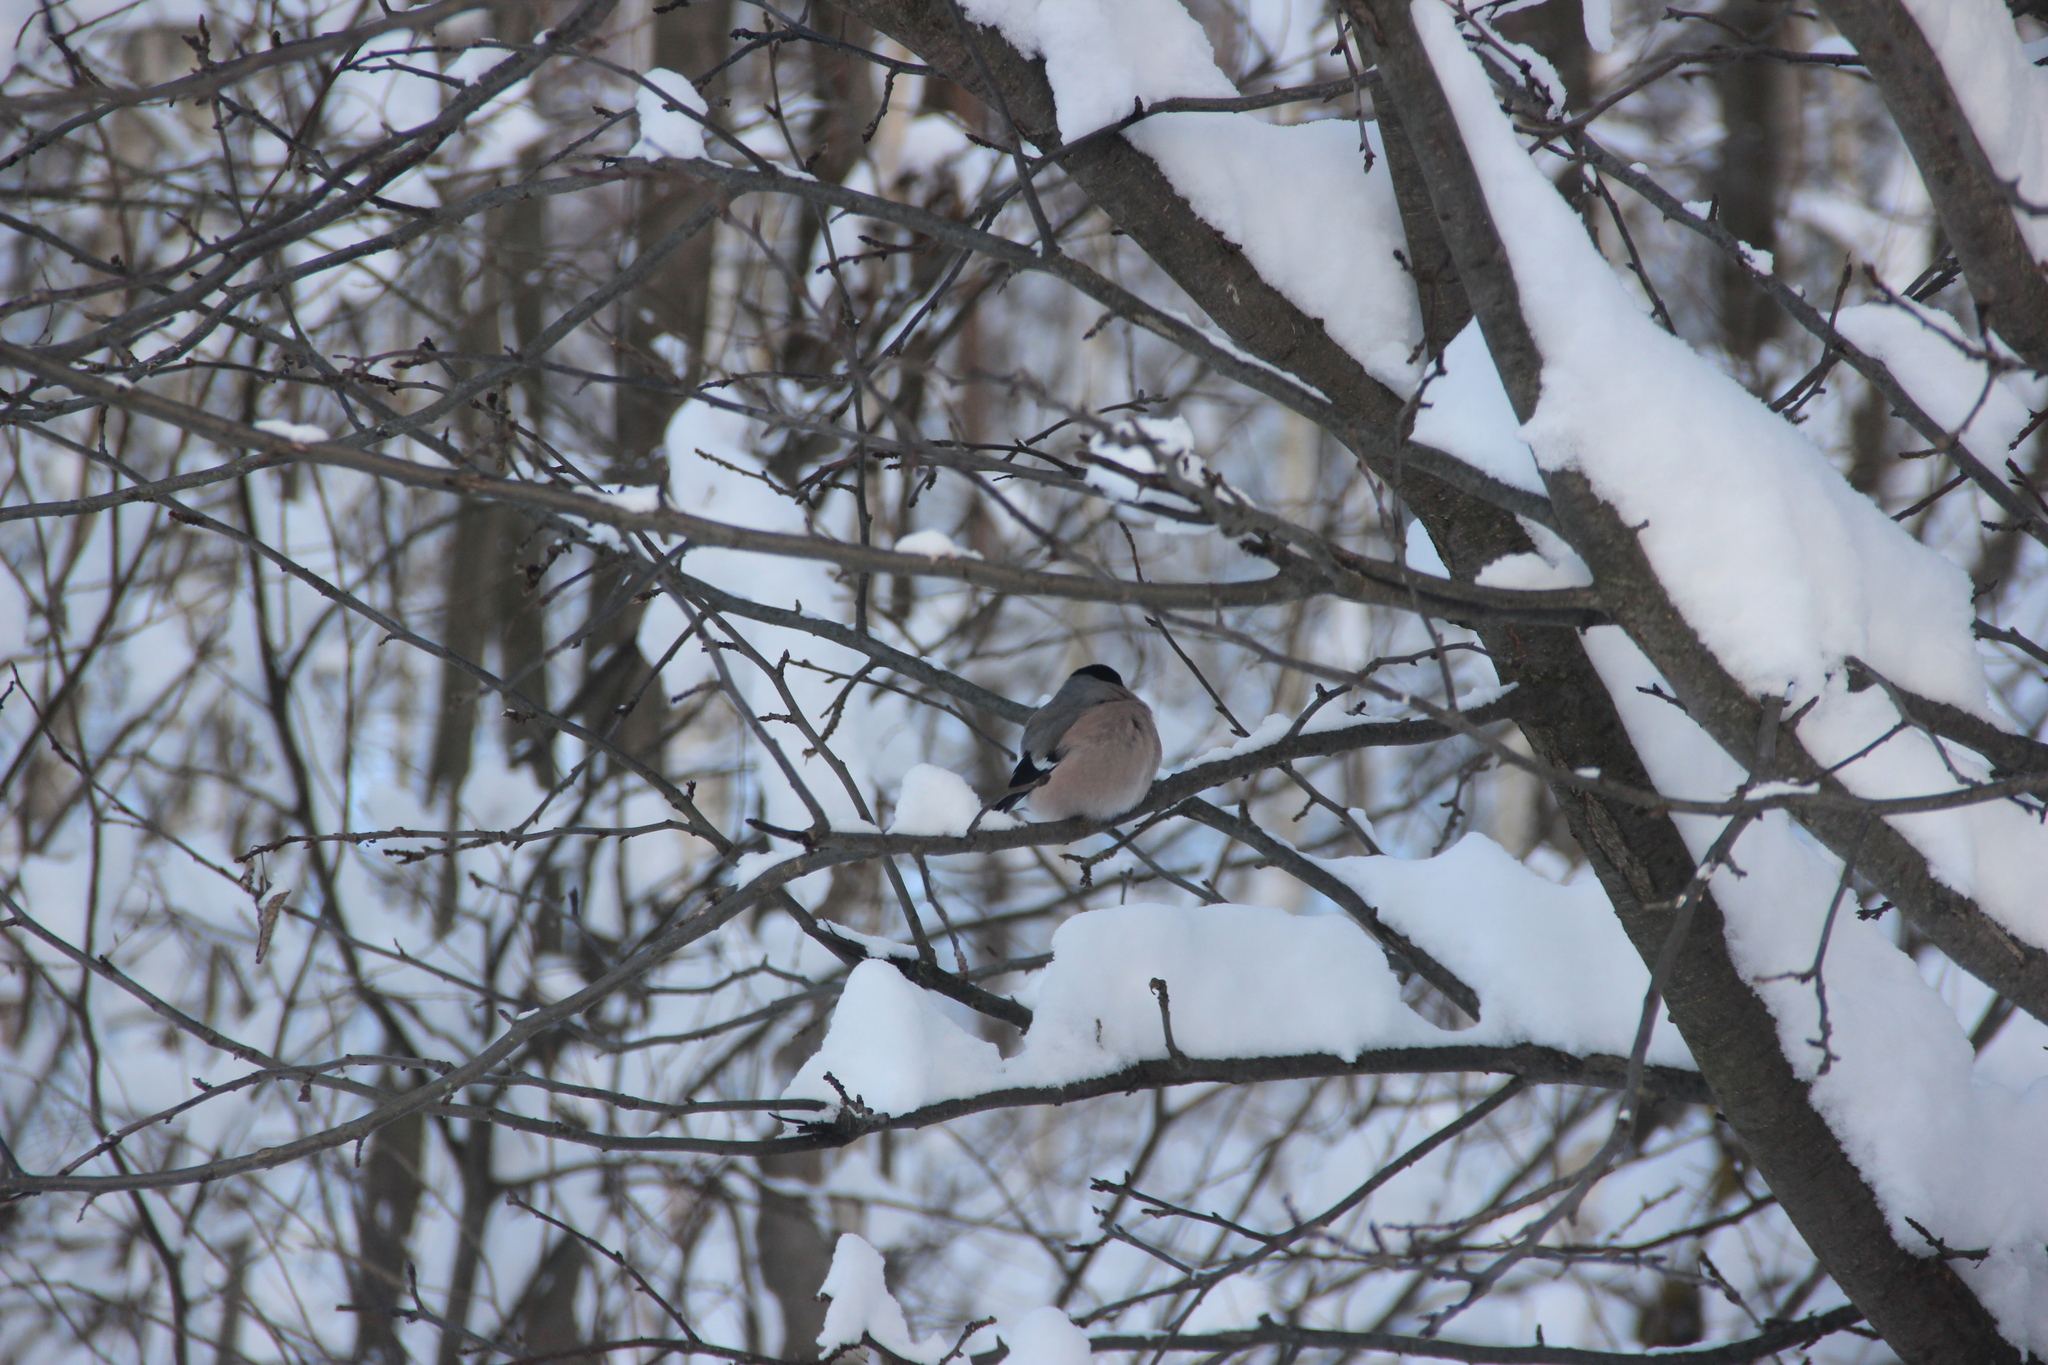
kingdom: Animalia
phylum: Chordata
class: Aves
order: Passeriformes
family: Fringillidae
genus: Pyrrhula
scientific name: Pyrrhula pyrrhula
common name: Eurasian bullfinch
